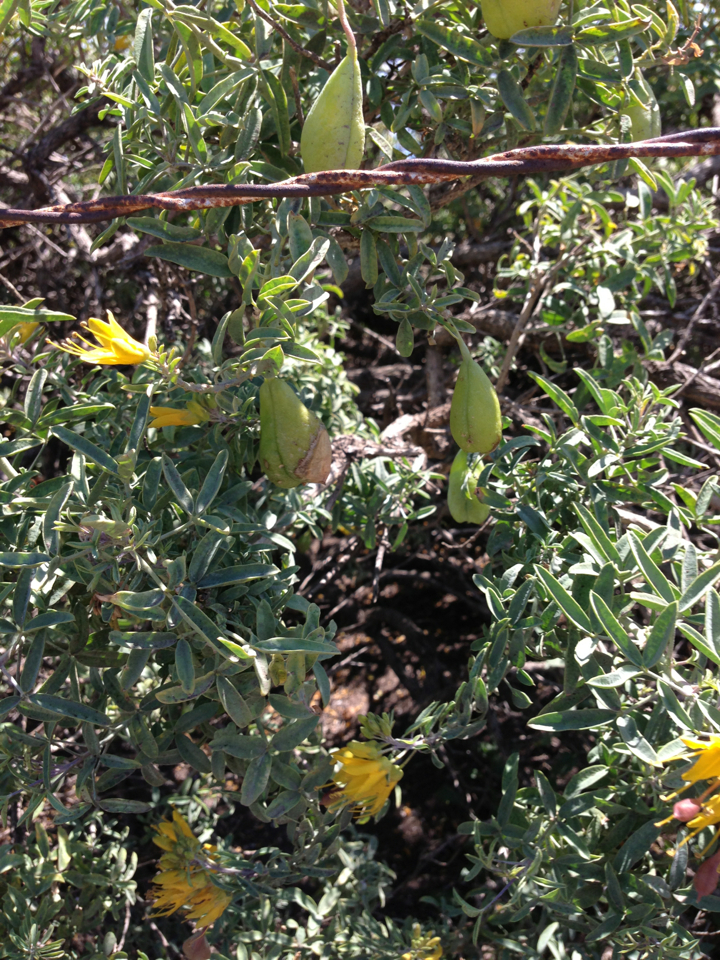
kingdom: Plantae
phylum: Tracheophyta
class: Magnoliopsida
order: Brassicales
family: Cleomaceae
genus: Cleomella
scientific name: Cleomella arborea
